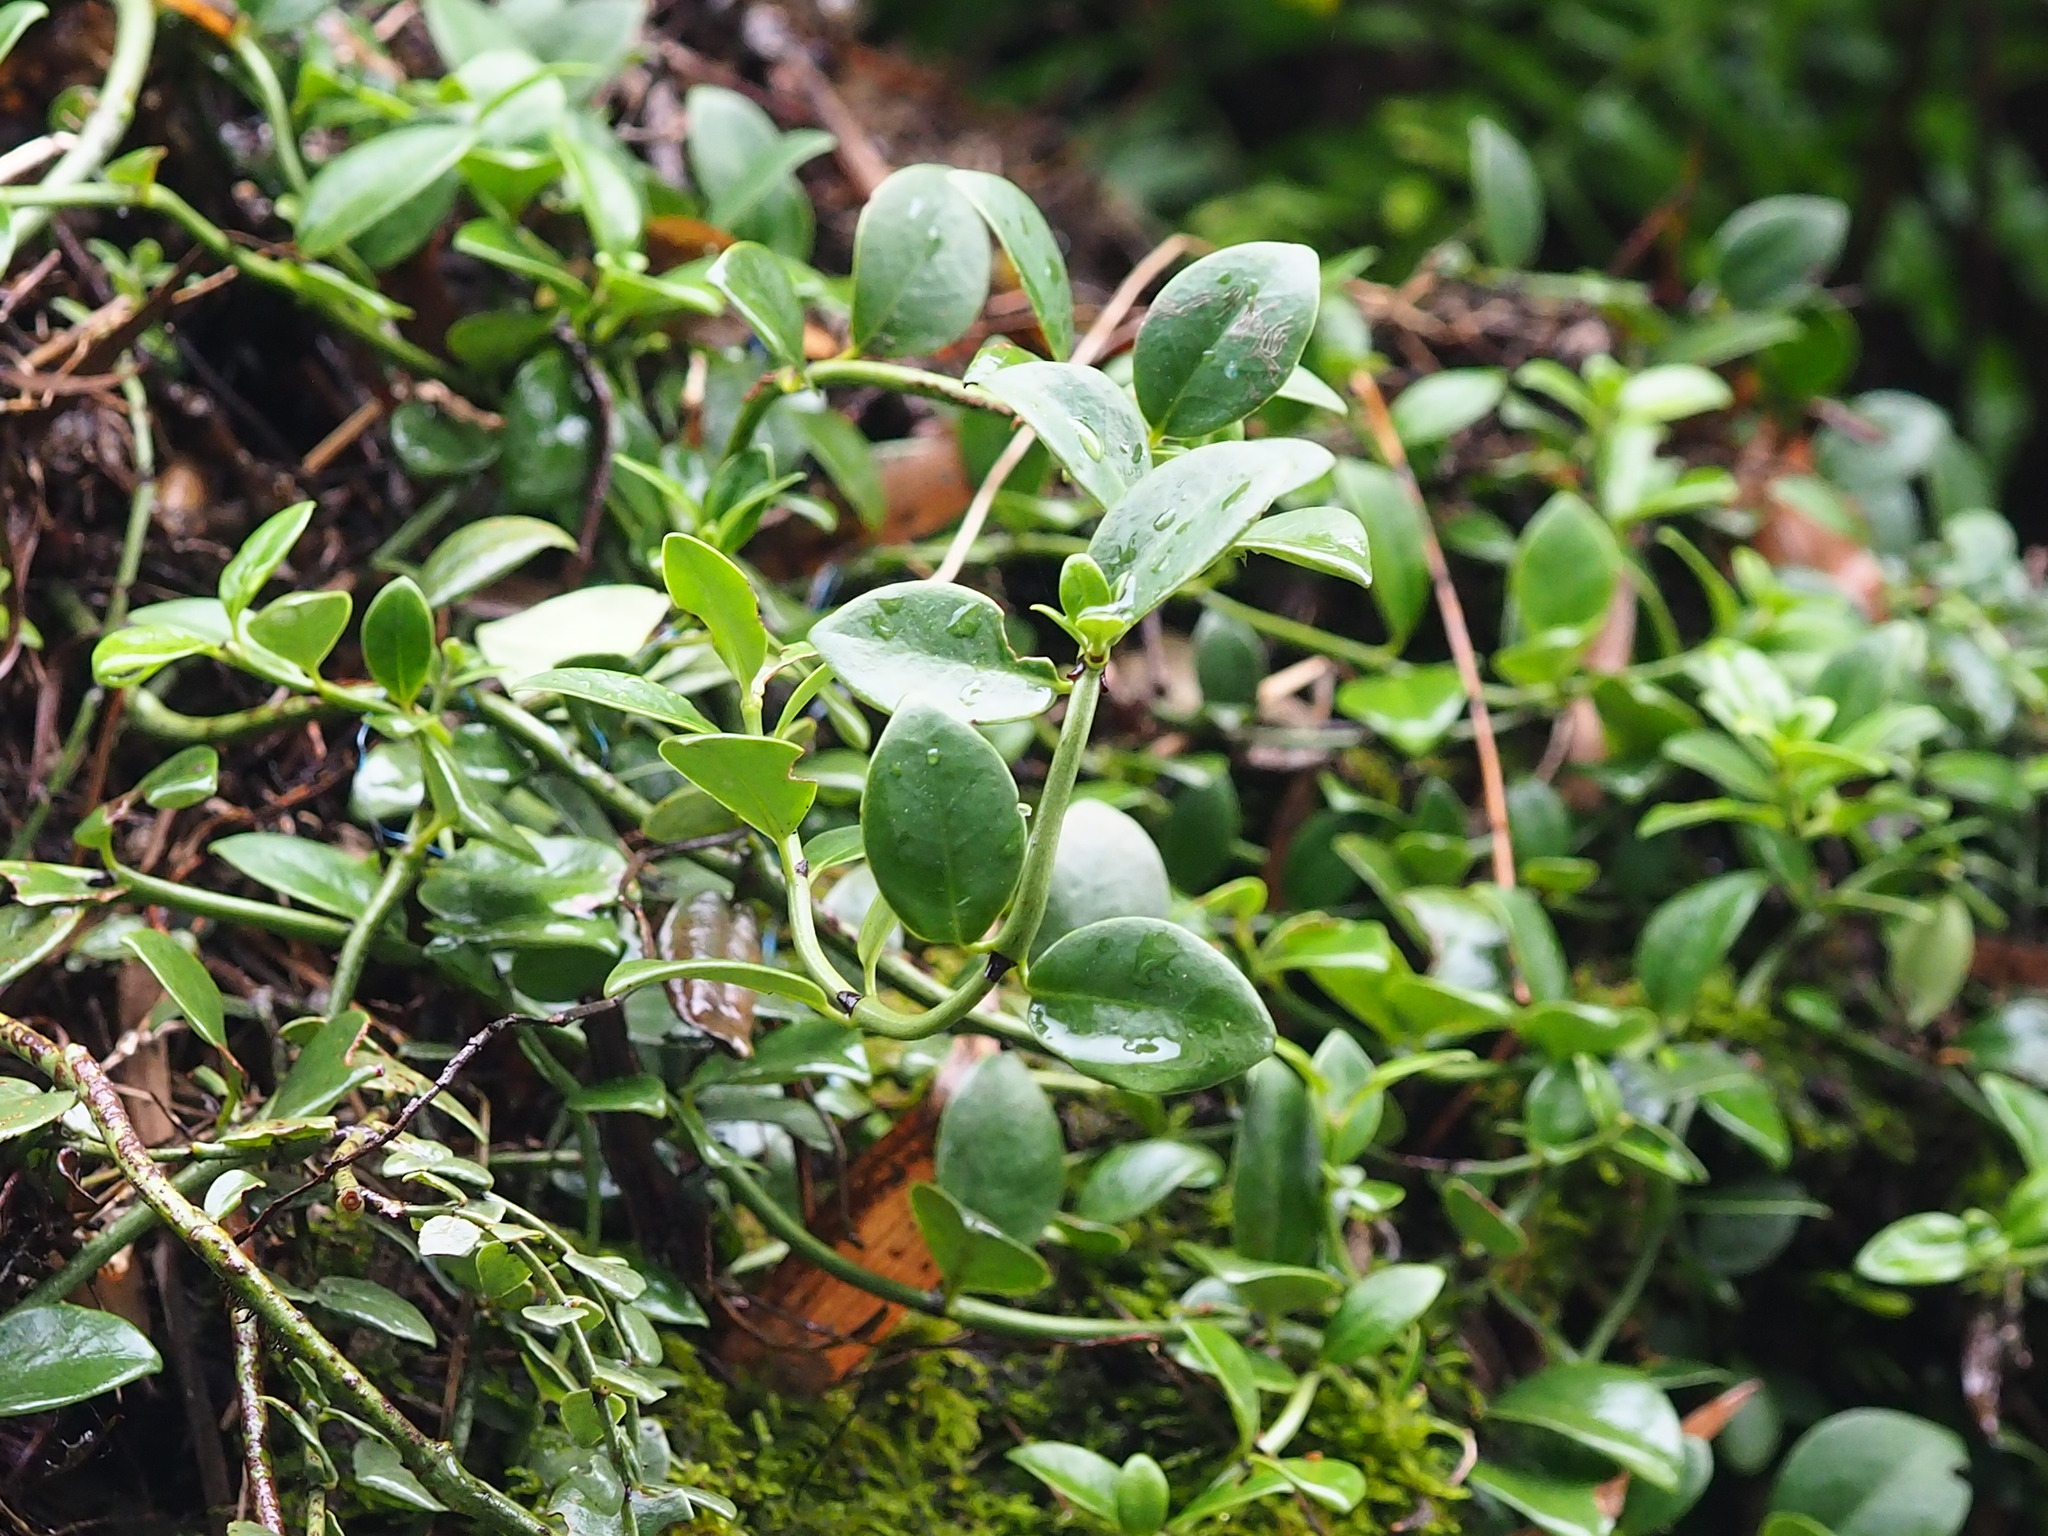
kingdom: Plantae
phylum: Tracheophyta
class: Magnoliopsida
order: Gentianales
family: Rubiaceae
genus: Psychotria
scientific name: Psychotria serpens
